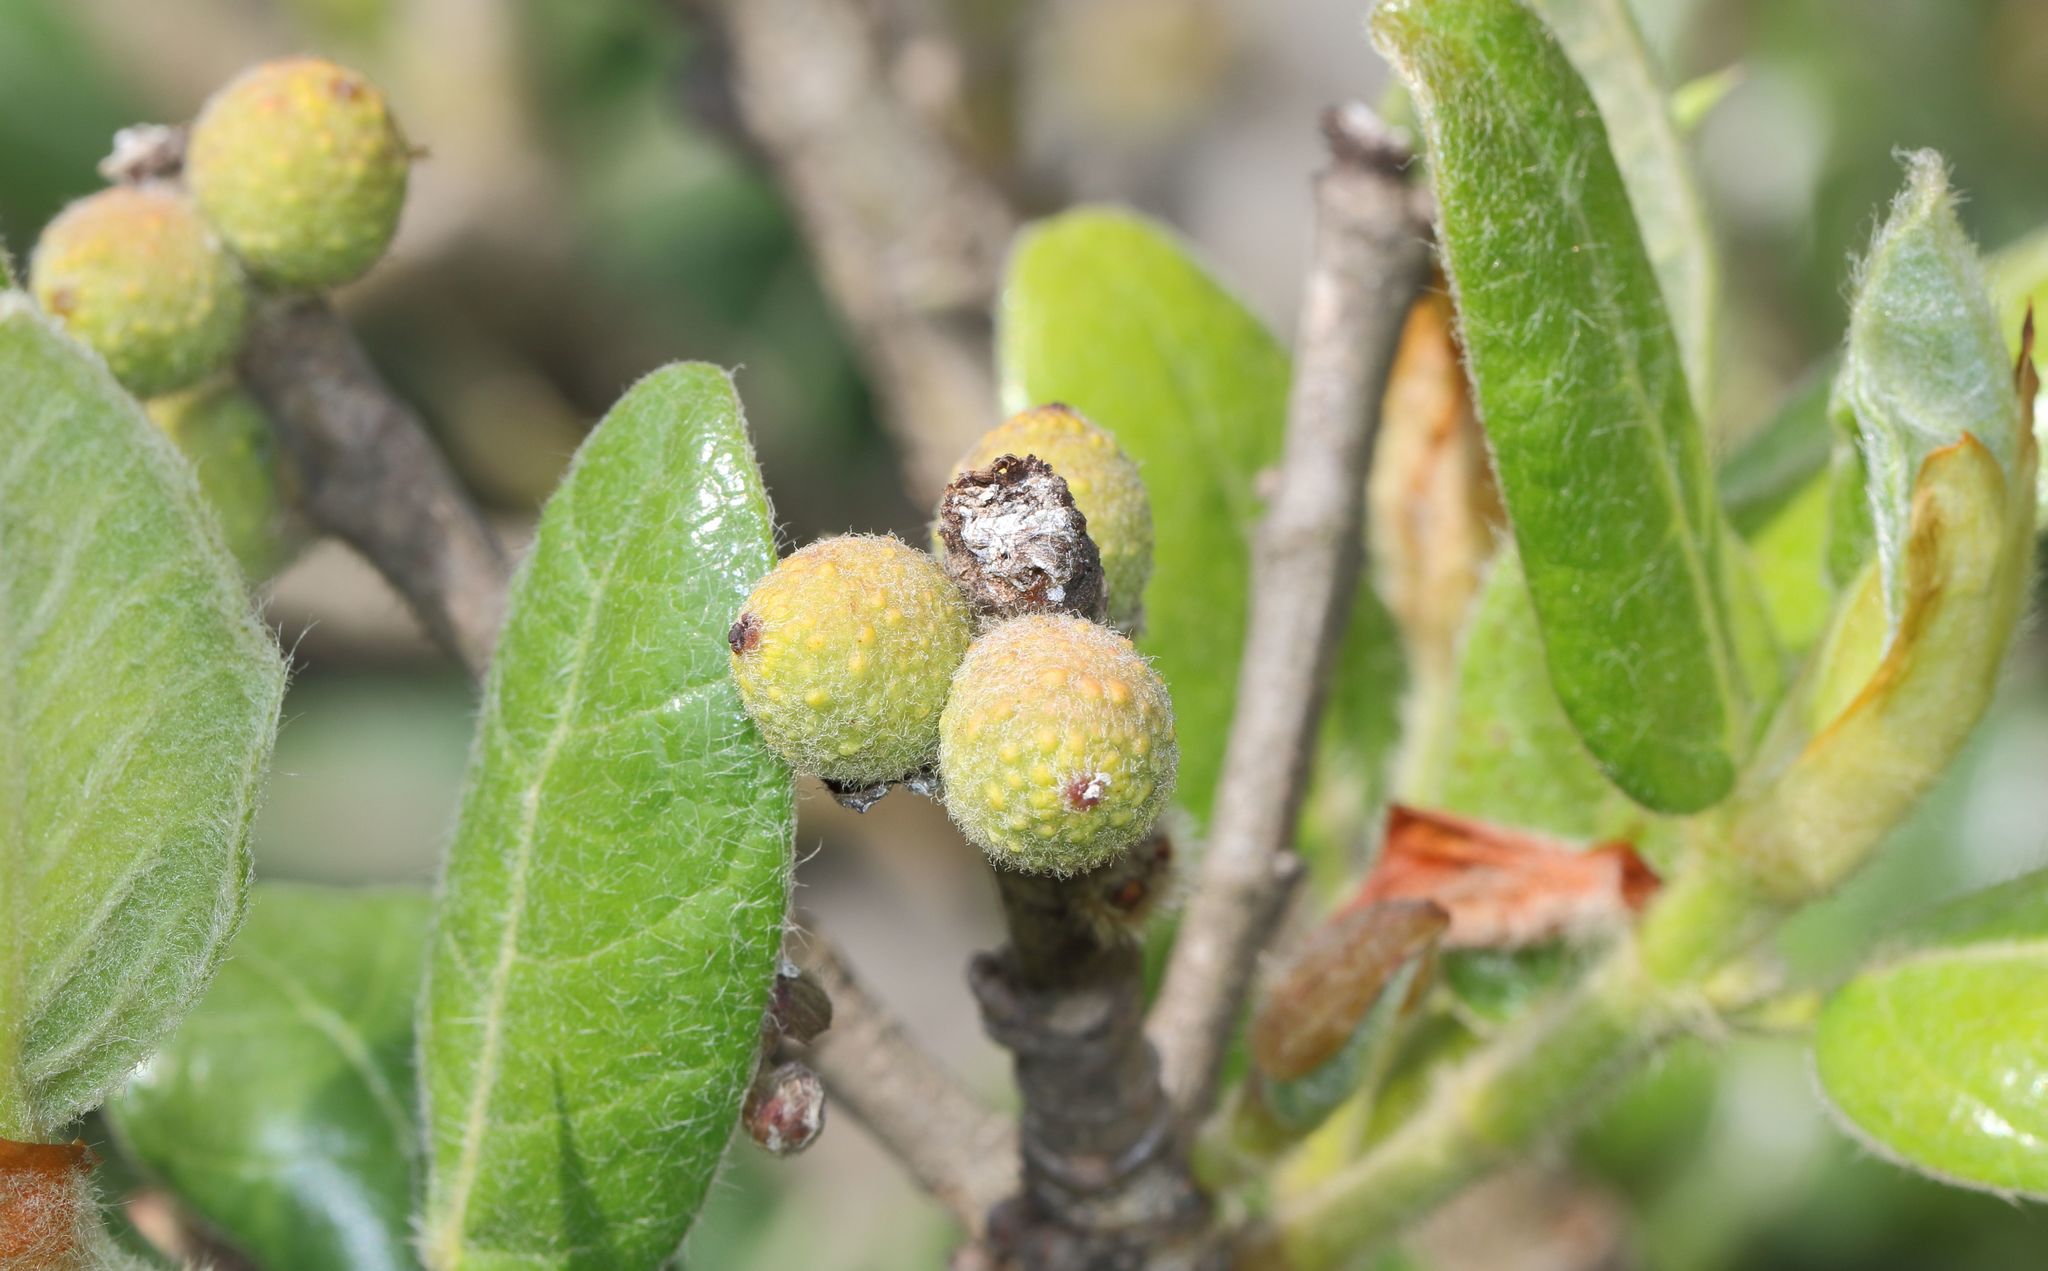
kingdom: Plantae
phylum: Tracheophyta
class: Magnoliopsida
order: Rosales
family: Moraceae
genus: Ficus
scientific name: Ficus glumosa
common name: Hairy rock fig
